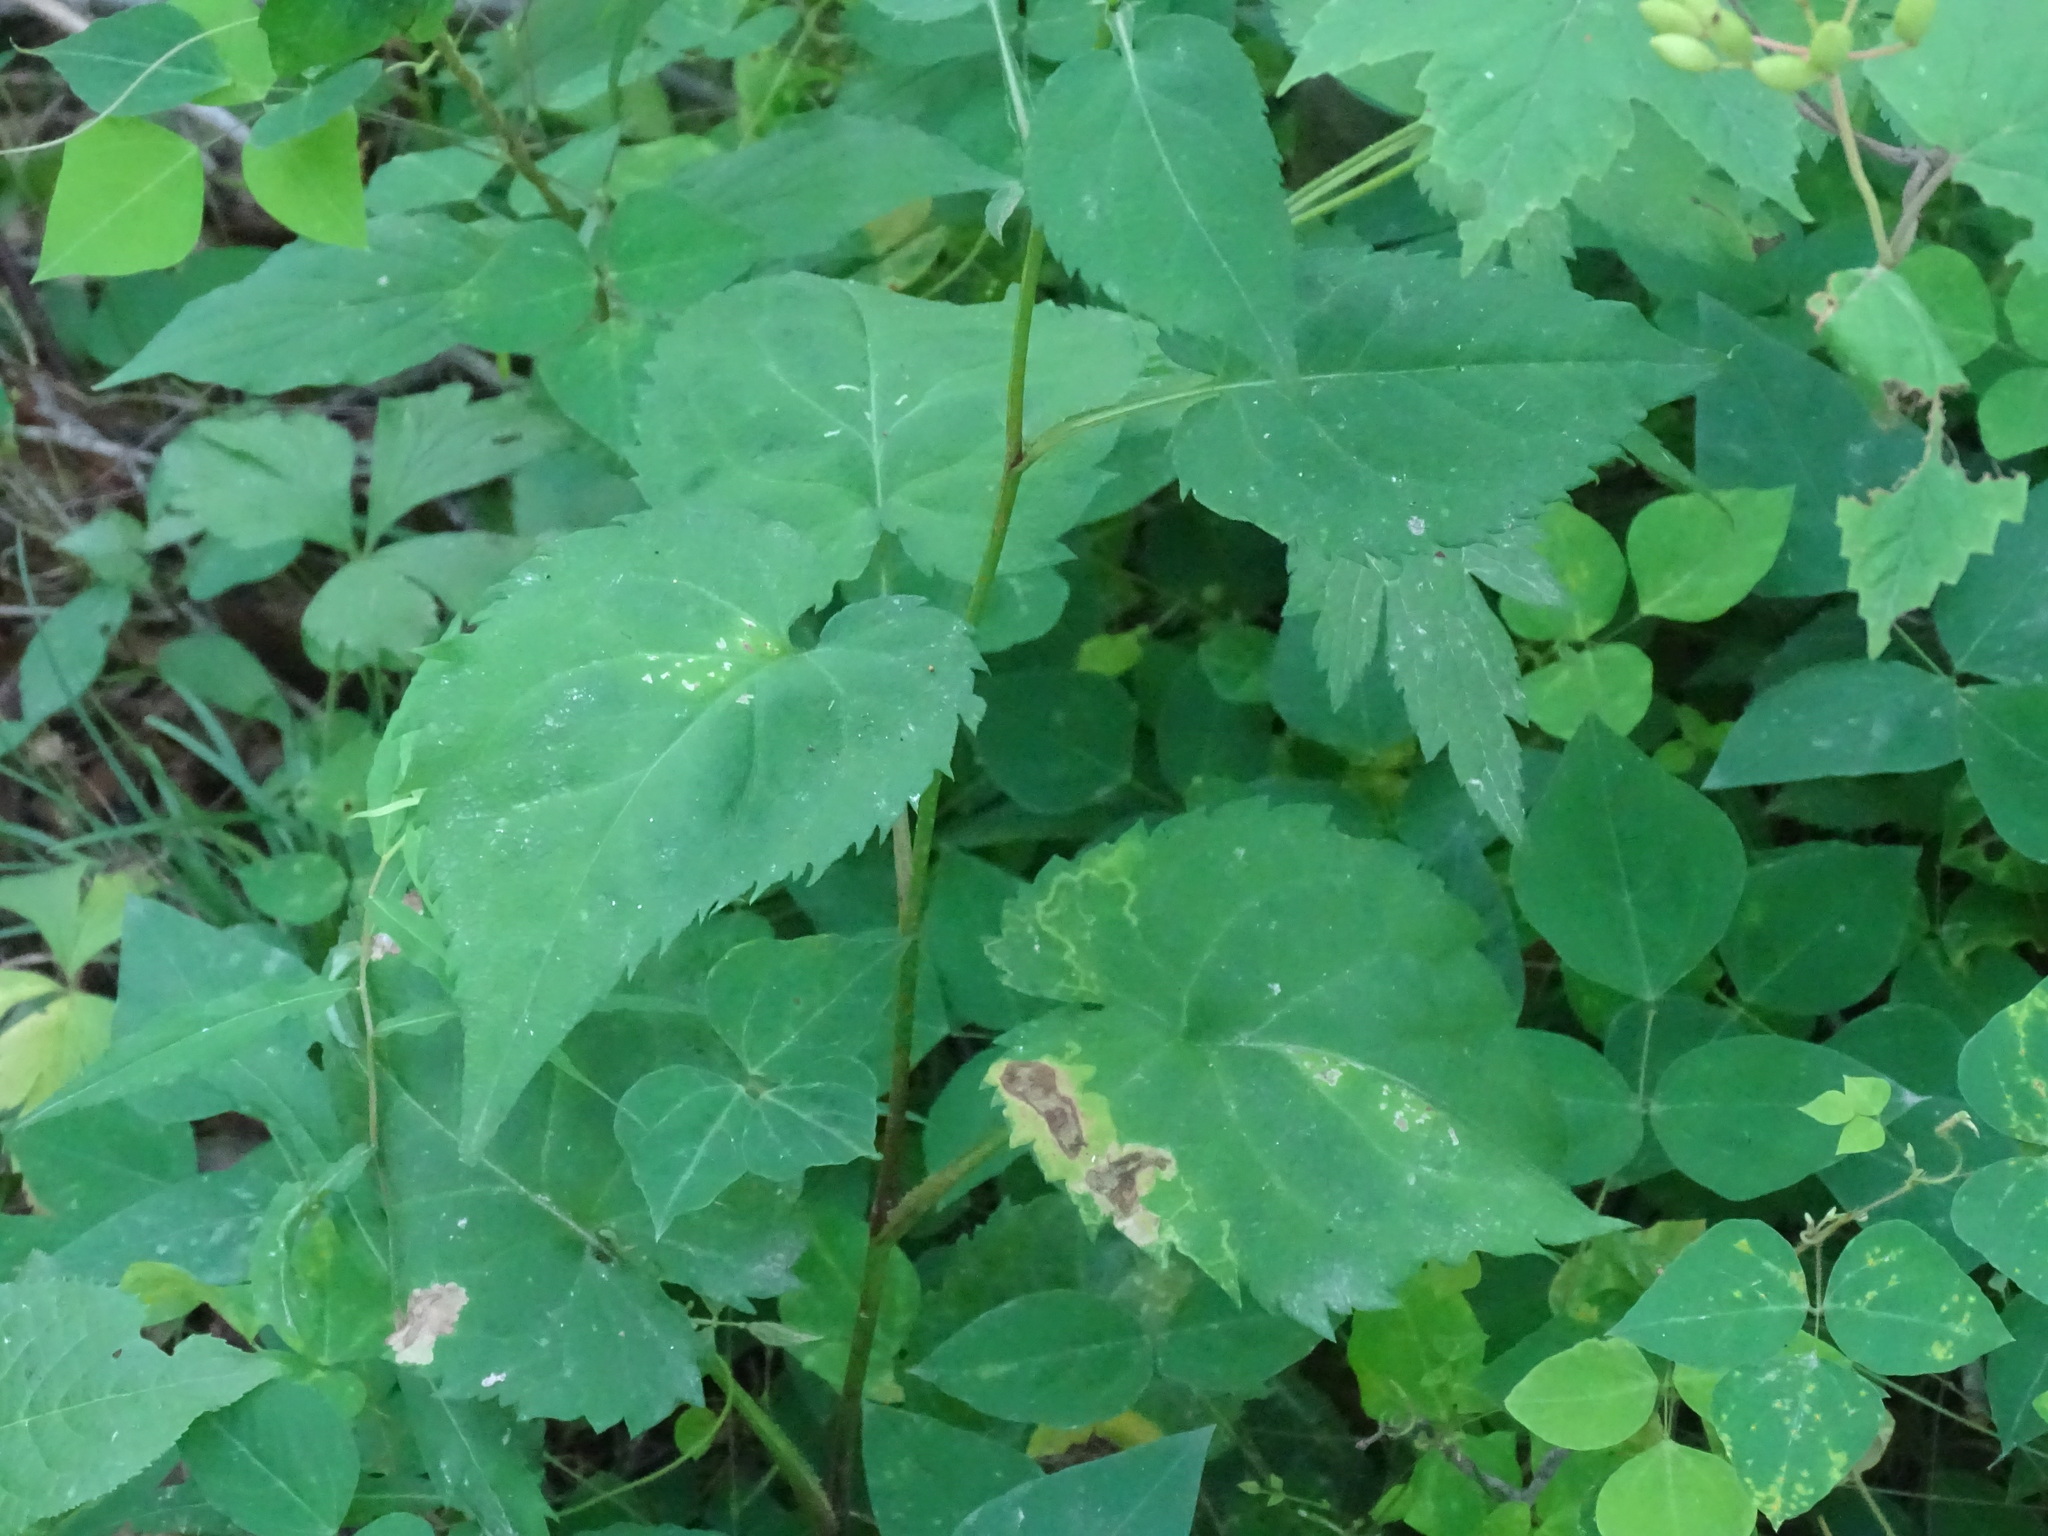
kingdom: Plantae
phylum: Tracheophyta
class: Magnoliopsida
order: Asterales
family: Asteraceae
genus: Symphyotrichum
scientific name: Symphyotrichum cordifolium
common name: Beeweed
